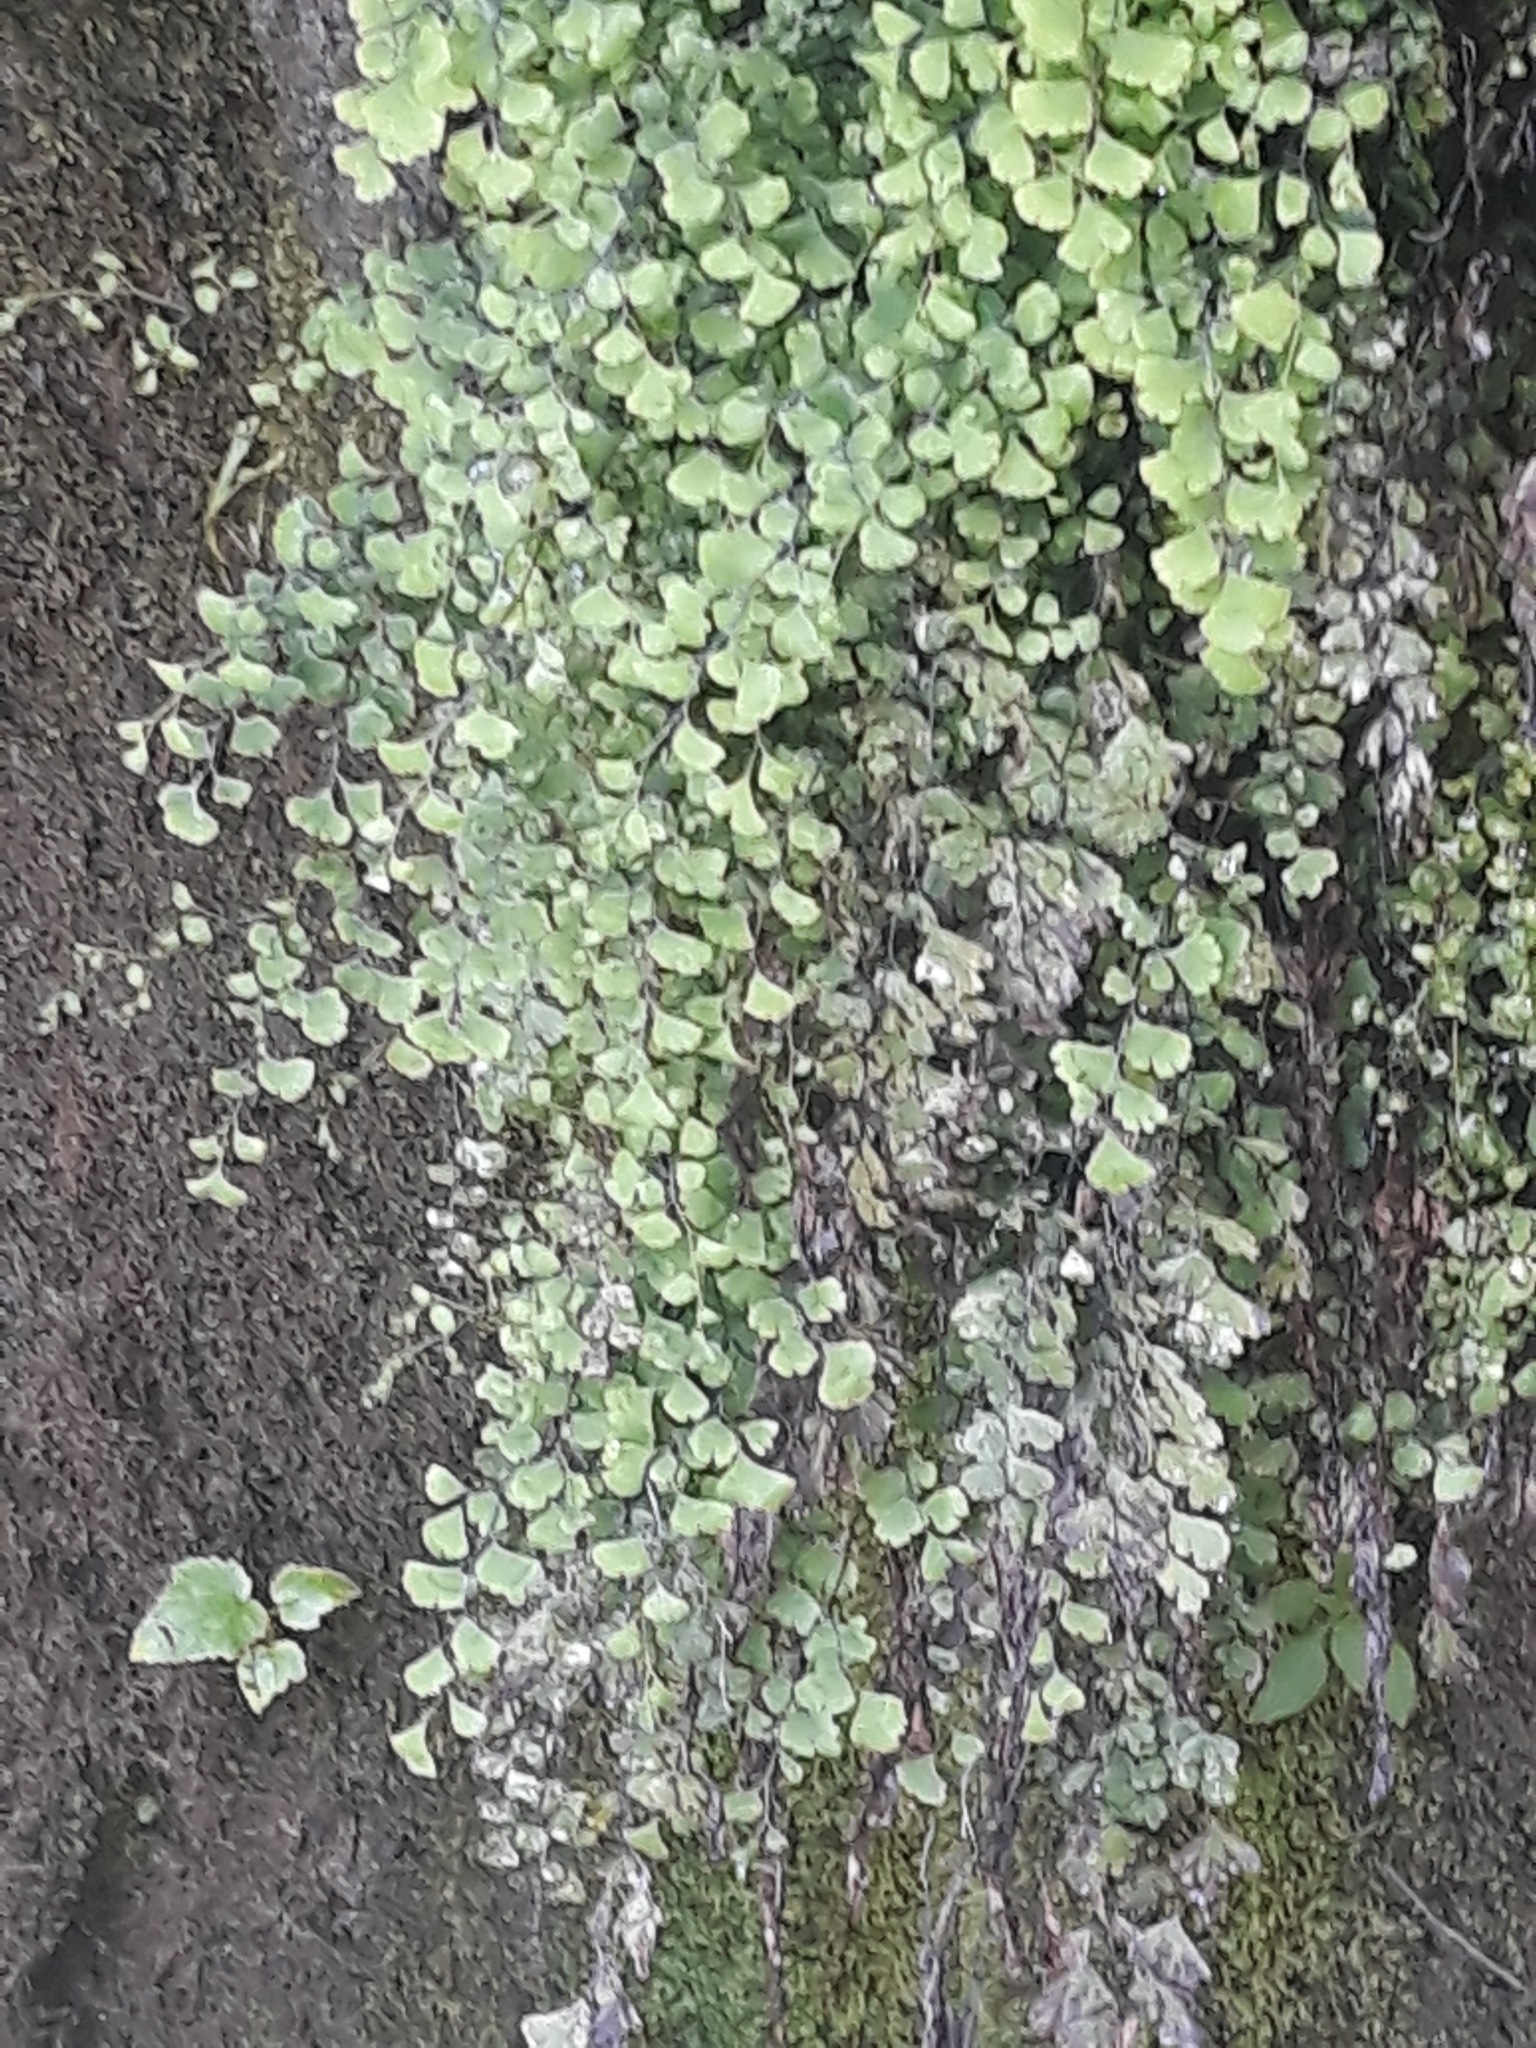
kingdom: Plantae
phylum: Tracheophyta
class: Polypodiopsida
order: Polypodiales
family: Pteridaceae
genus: Adiantum
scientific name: Adiantum capillus-veneris
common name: Maidenhair fern
